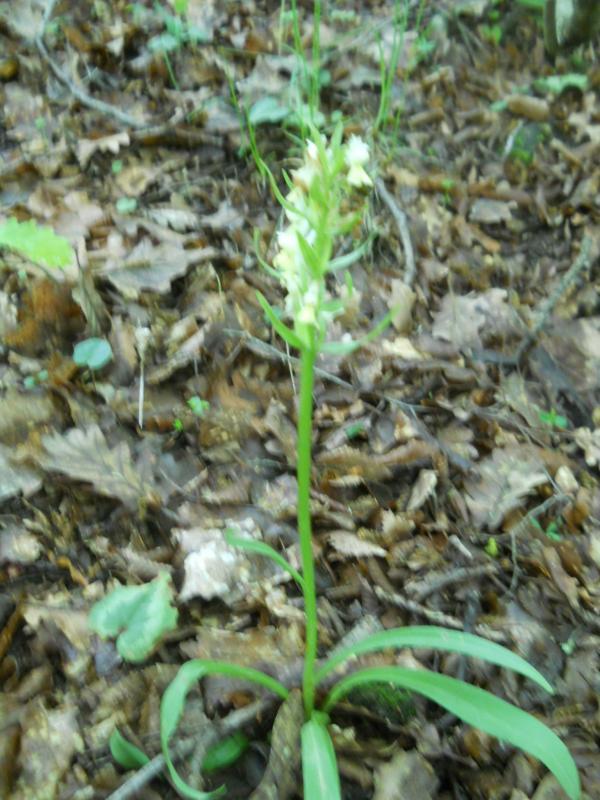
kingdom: Plantae
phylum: Tracheophyta
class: Liliopsida
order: Asparagales
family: Orchidaceae
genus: Dactylorhiza
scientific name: Dactylorhiza romana
